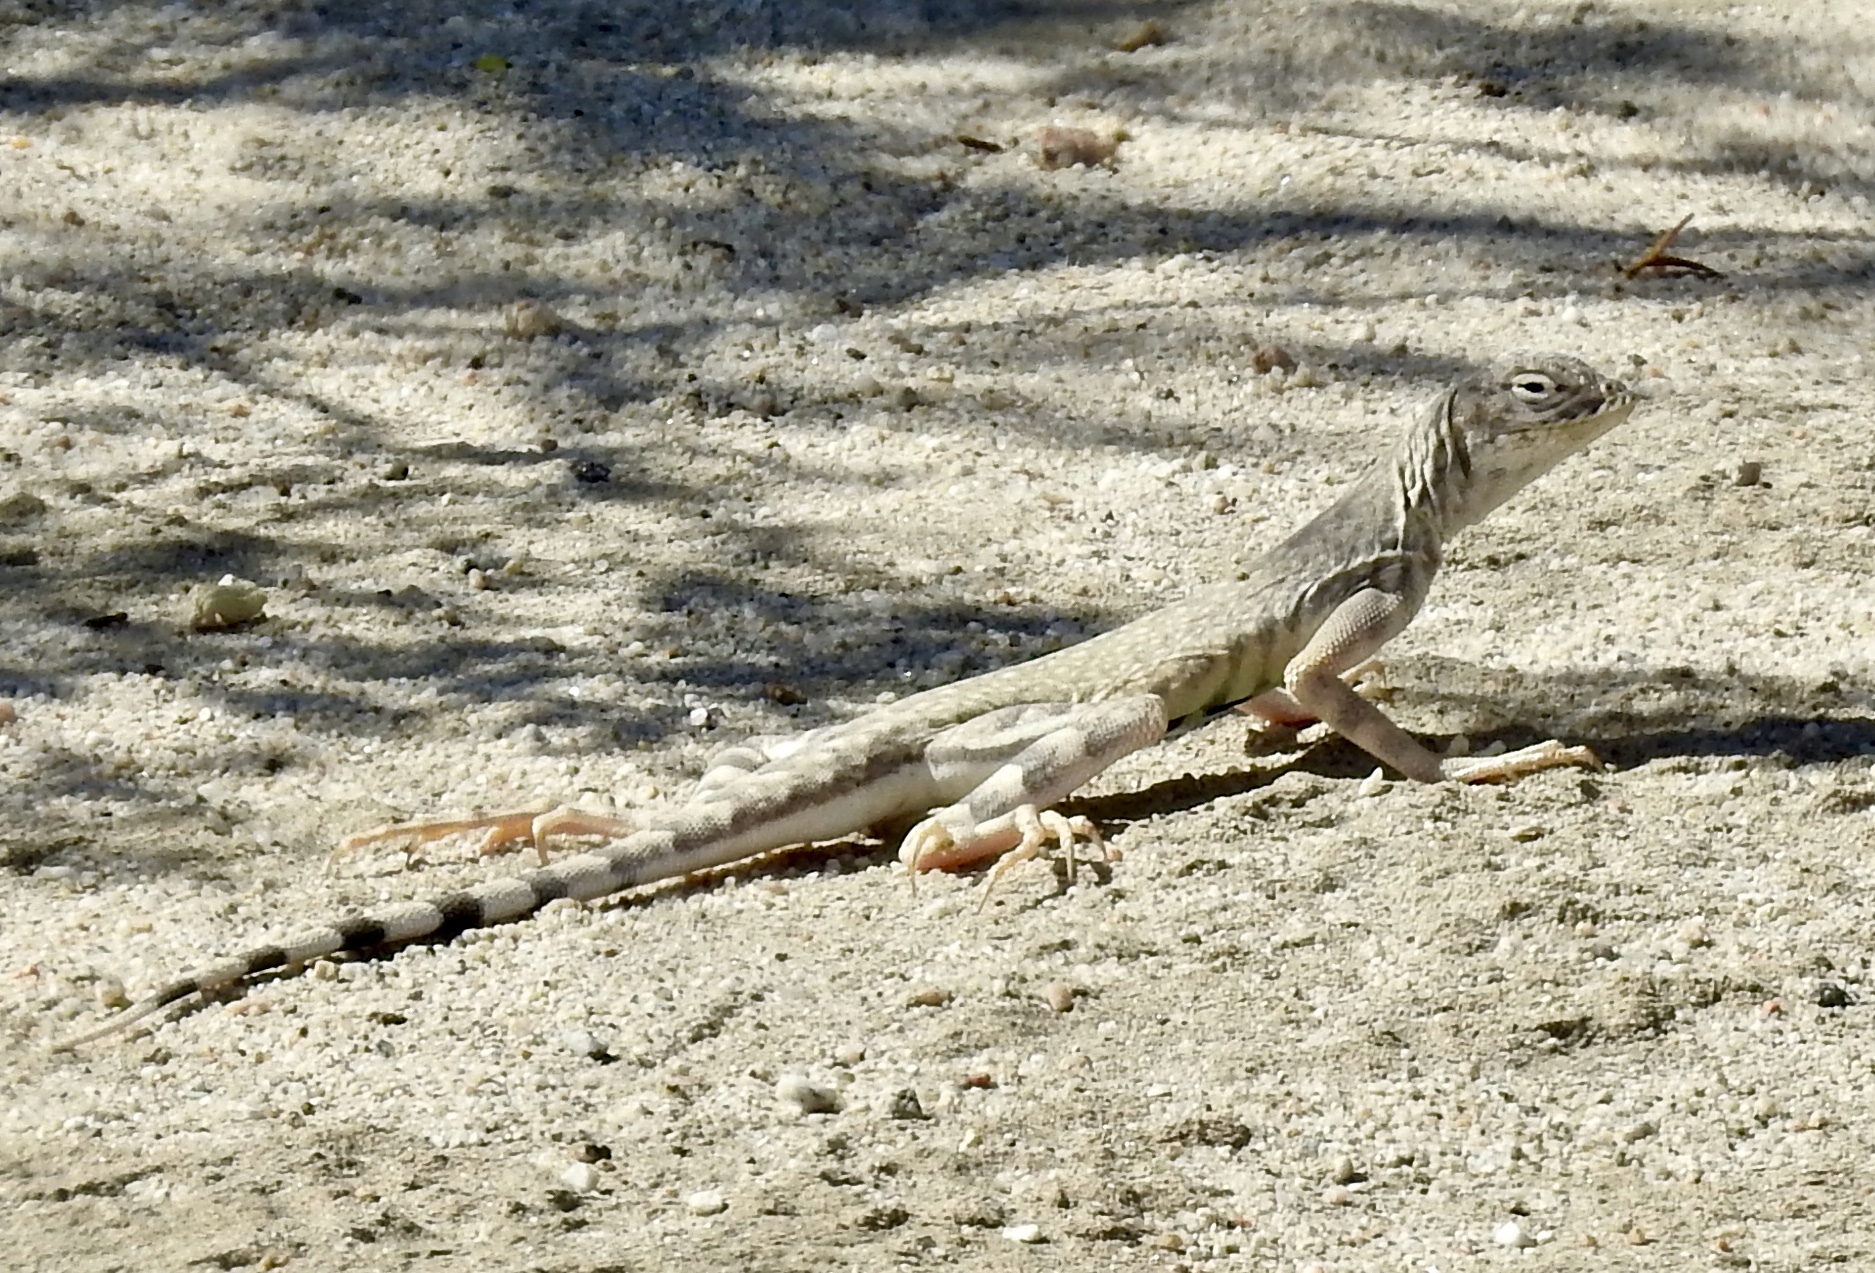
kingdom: Animalia
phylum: Chordata
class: Squamata
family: Phrynosomatidae
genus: Callisaurus
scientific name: Callisaurus draconoides
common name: Zebra-tailed lizard
